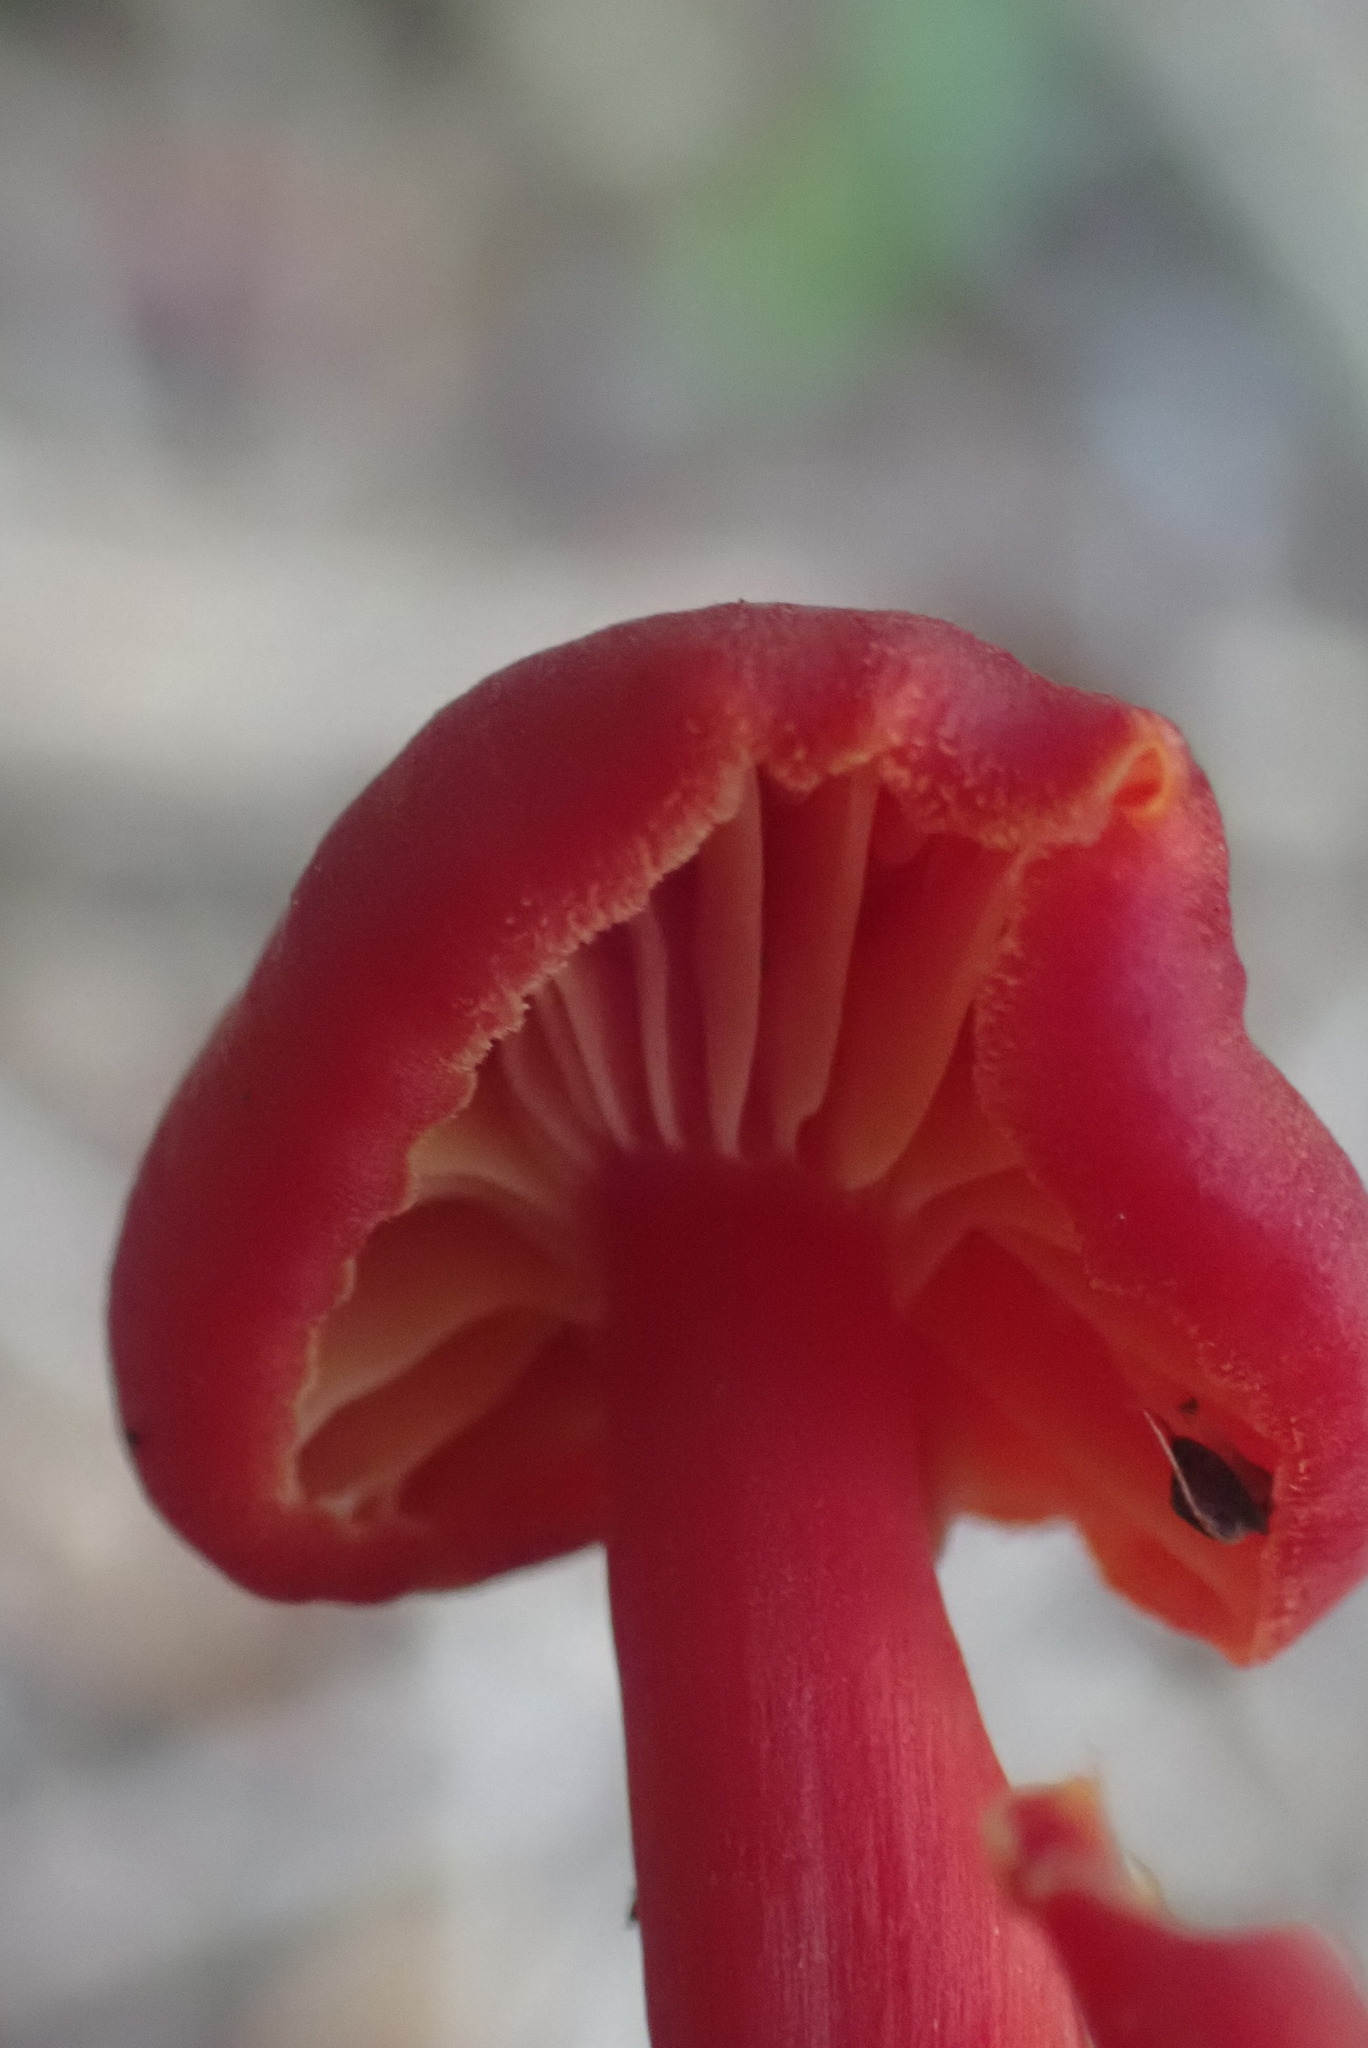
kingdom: Fungi
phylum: Basidiomycota
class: Agaricomycetes
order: Agaricales
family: Hygrophoraceae
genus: Hygrocybe
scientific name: Hygrocybe miniata
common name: Vermilion waxcap
